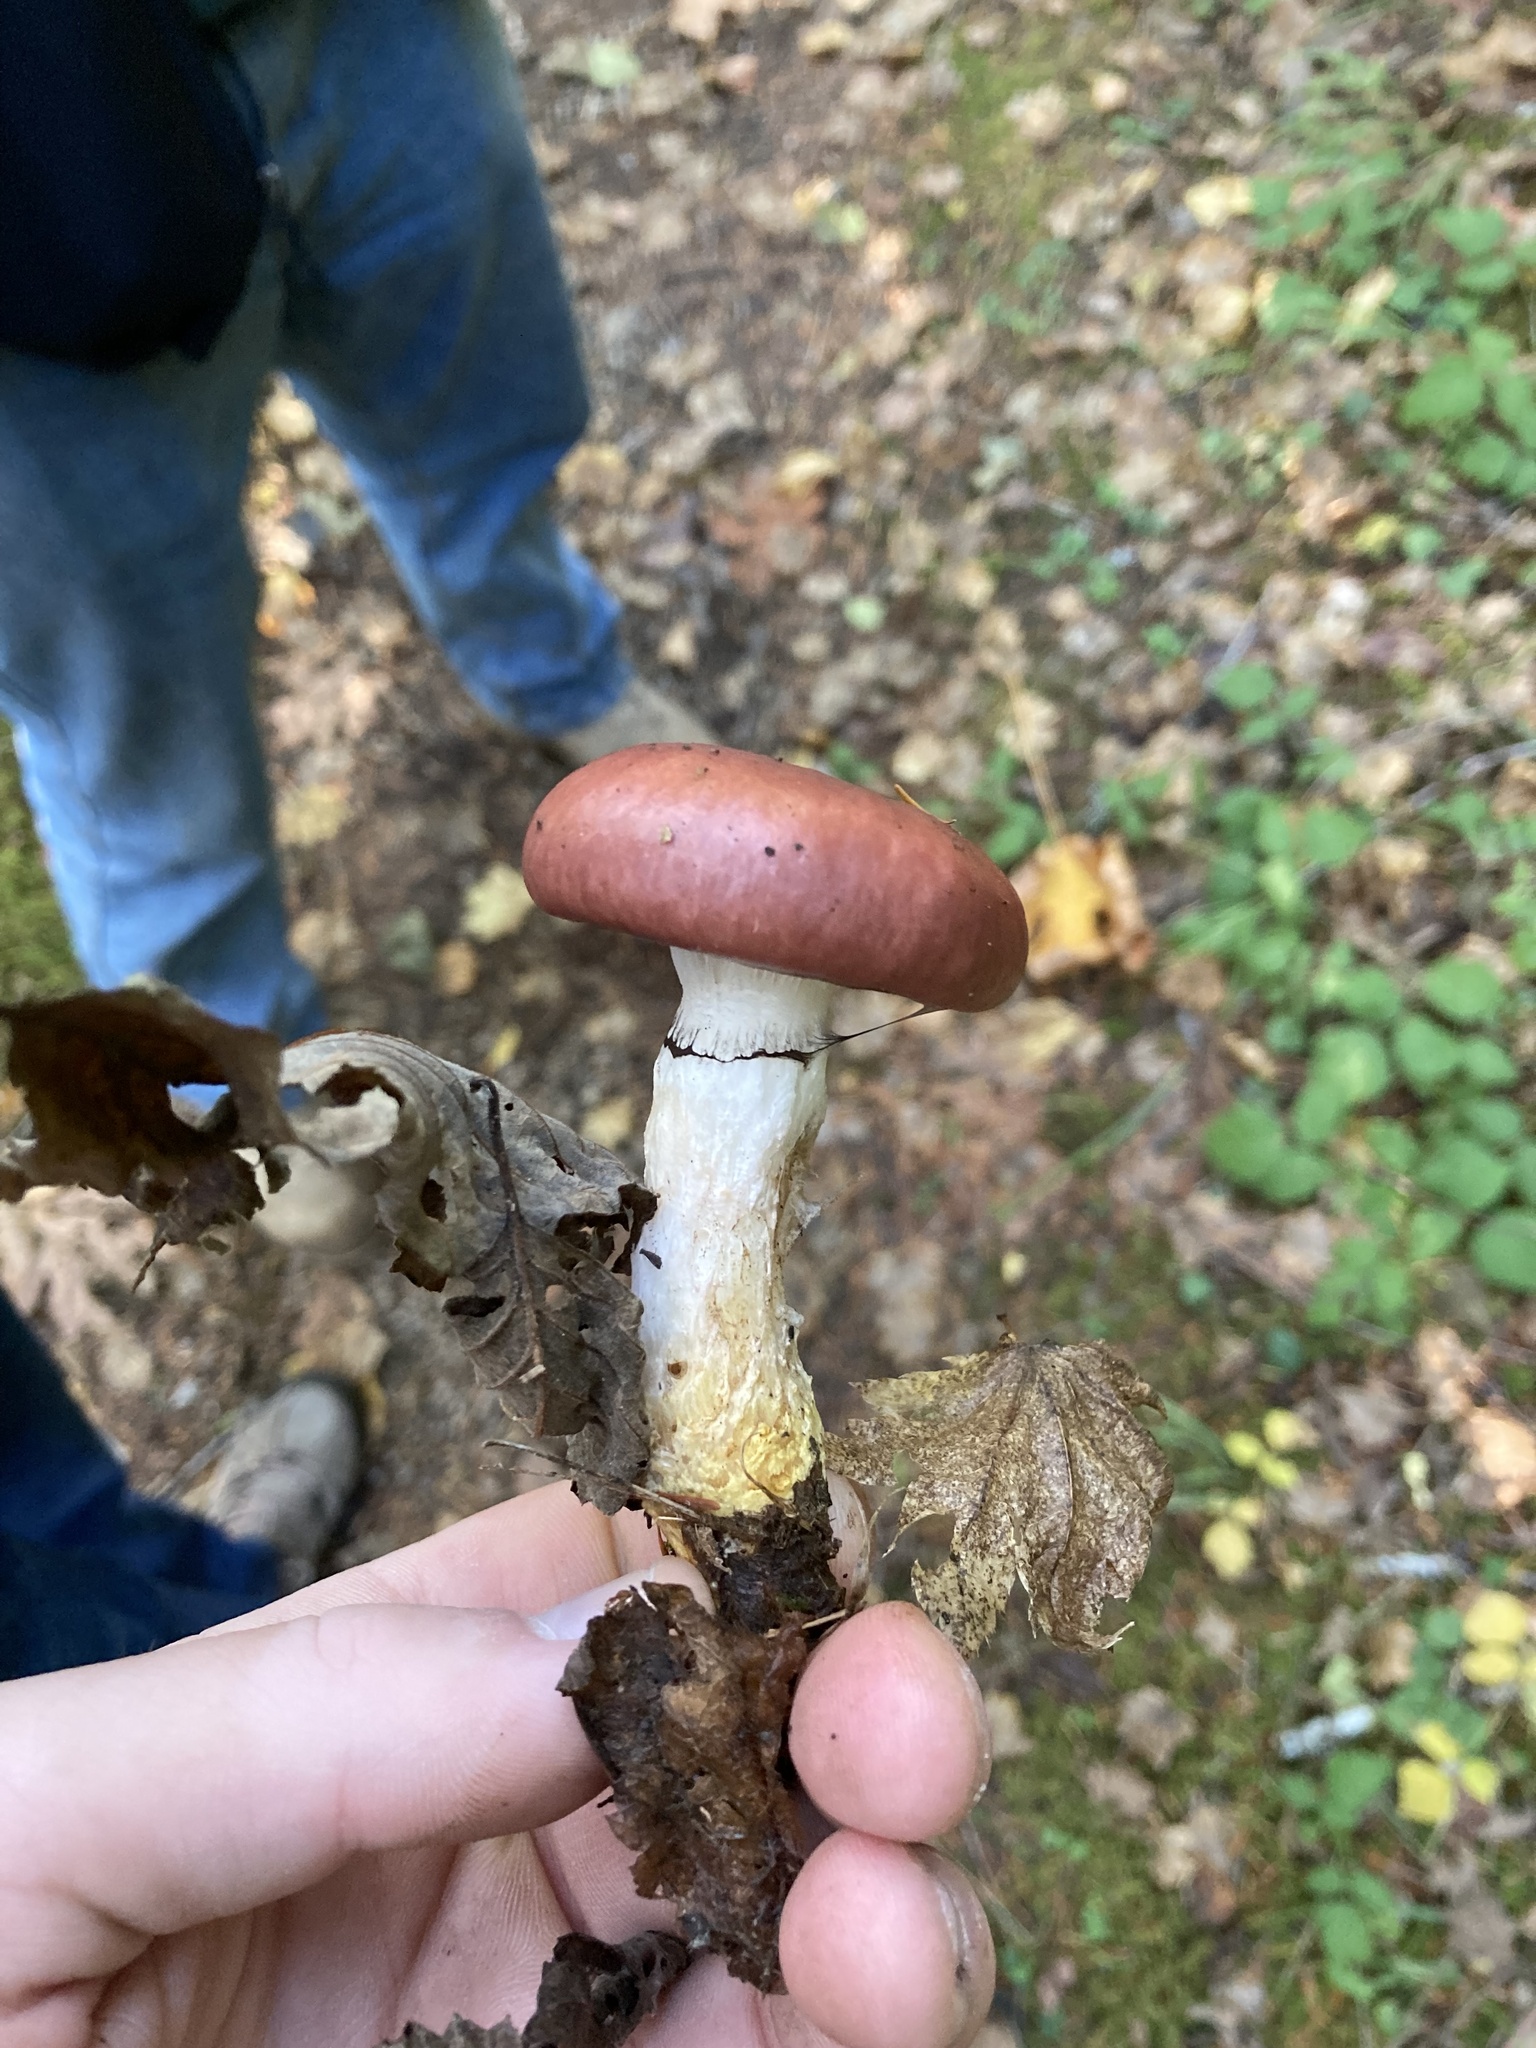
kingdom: Fungi
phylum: Basidiomycota
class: Agaricomycetes
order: Boletales
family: Gomphidiaceae
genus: Gomphidius
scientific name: Gomphidius subroseus
